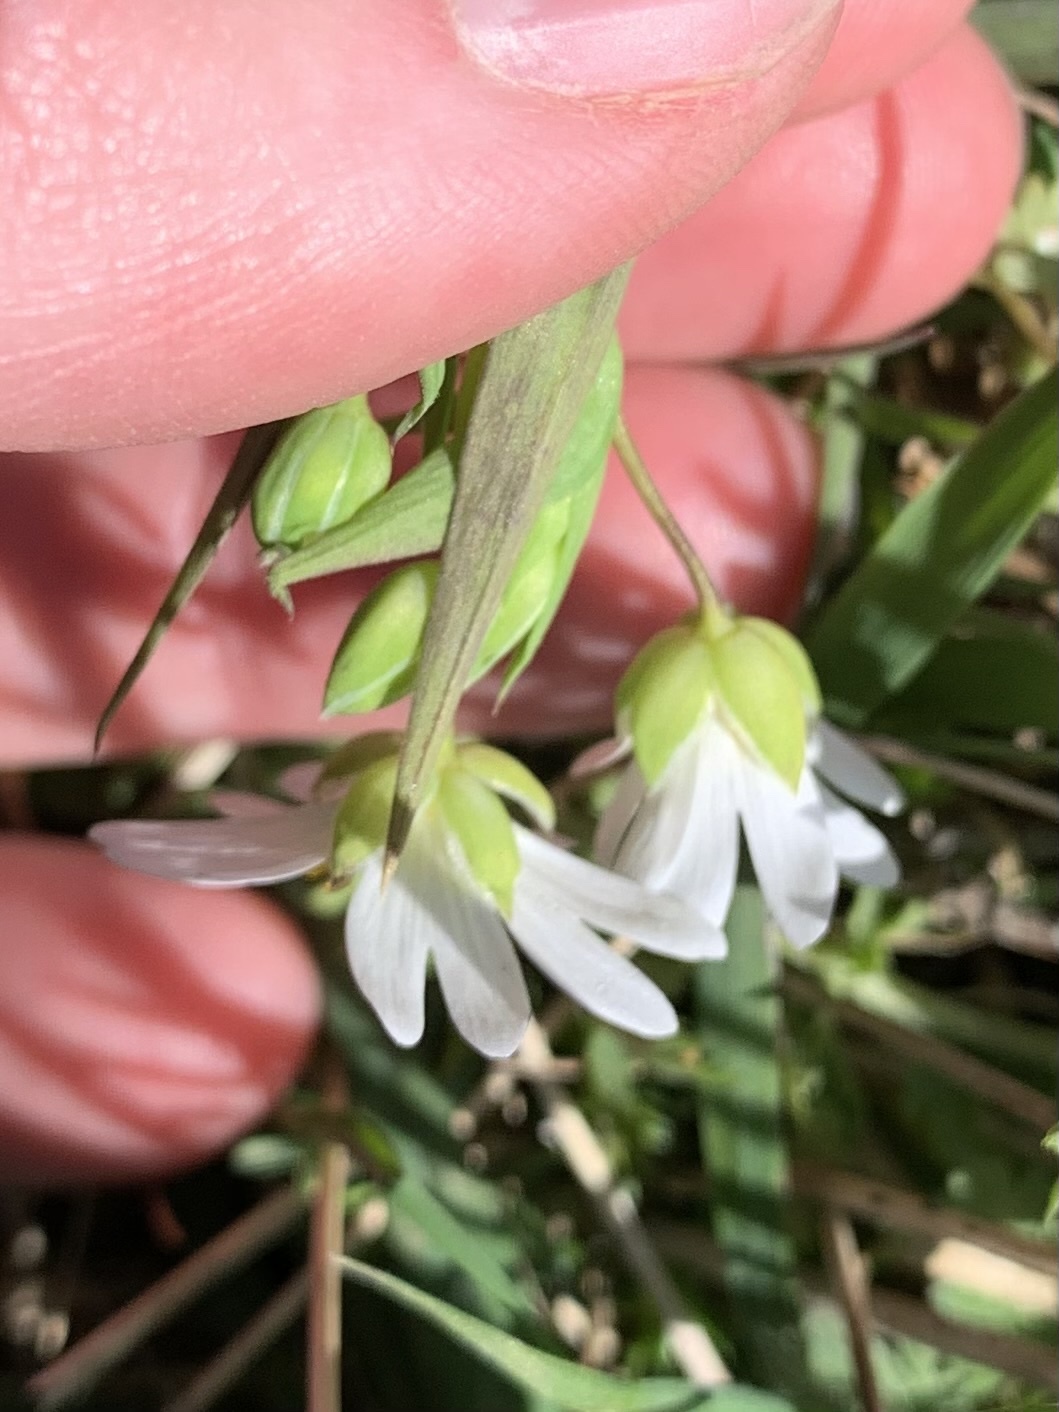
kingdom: Plantae
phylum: Tracheophyta
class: Magnoliopsida
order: Caryophyllales
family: Caryophyllaceae
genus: Rabelera
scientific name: Rabelera holostea
